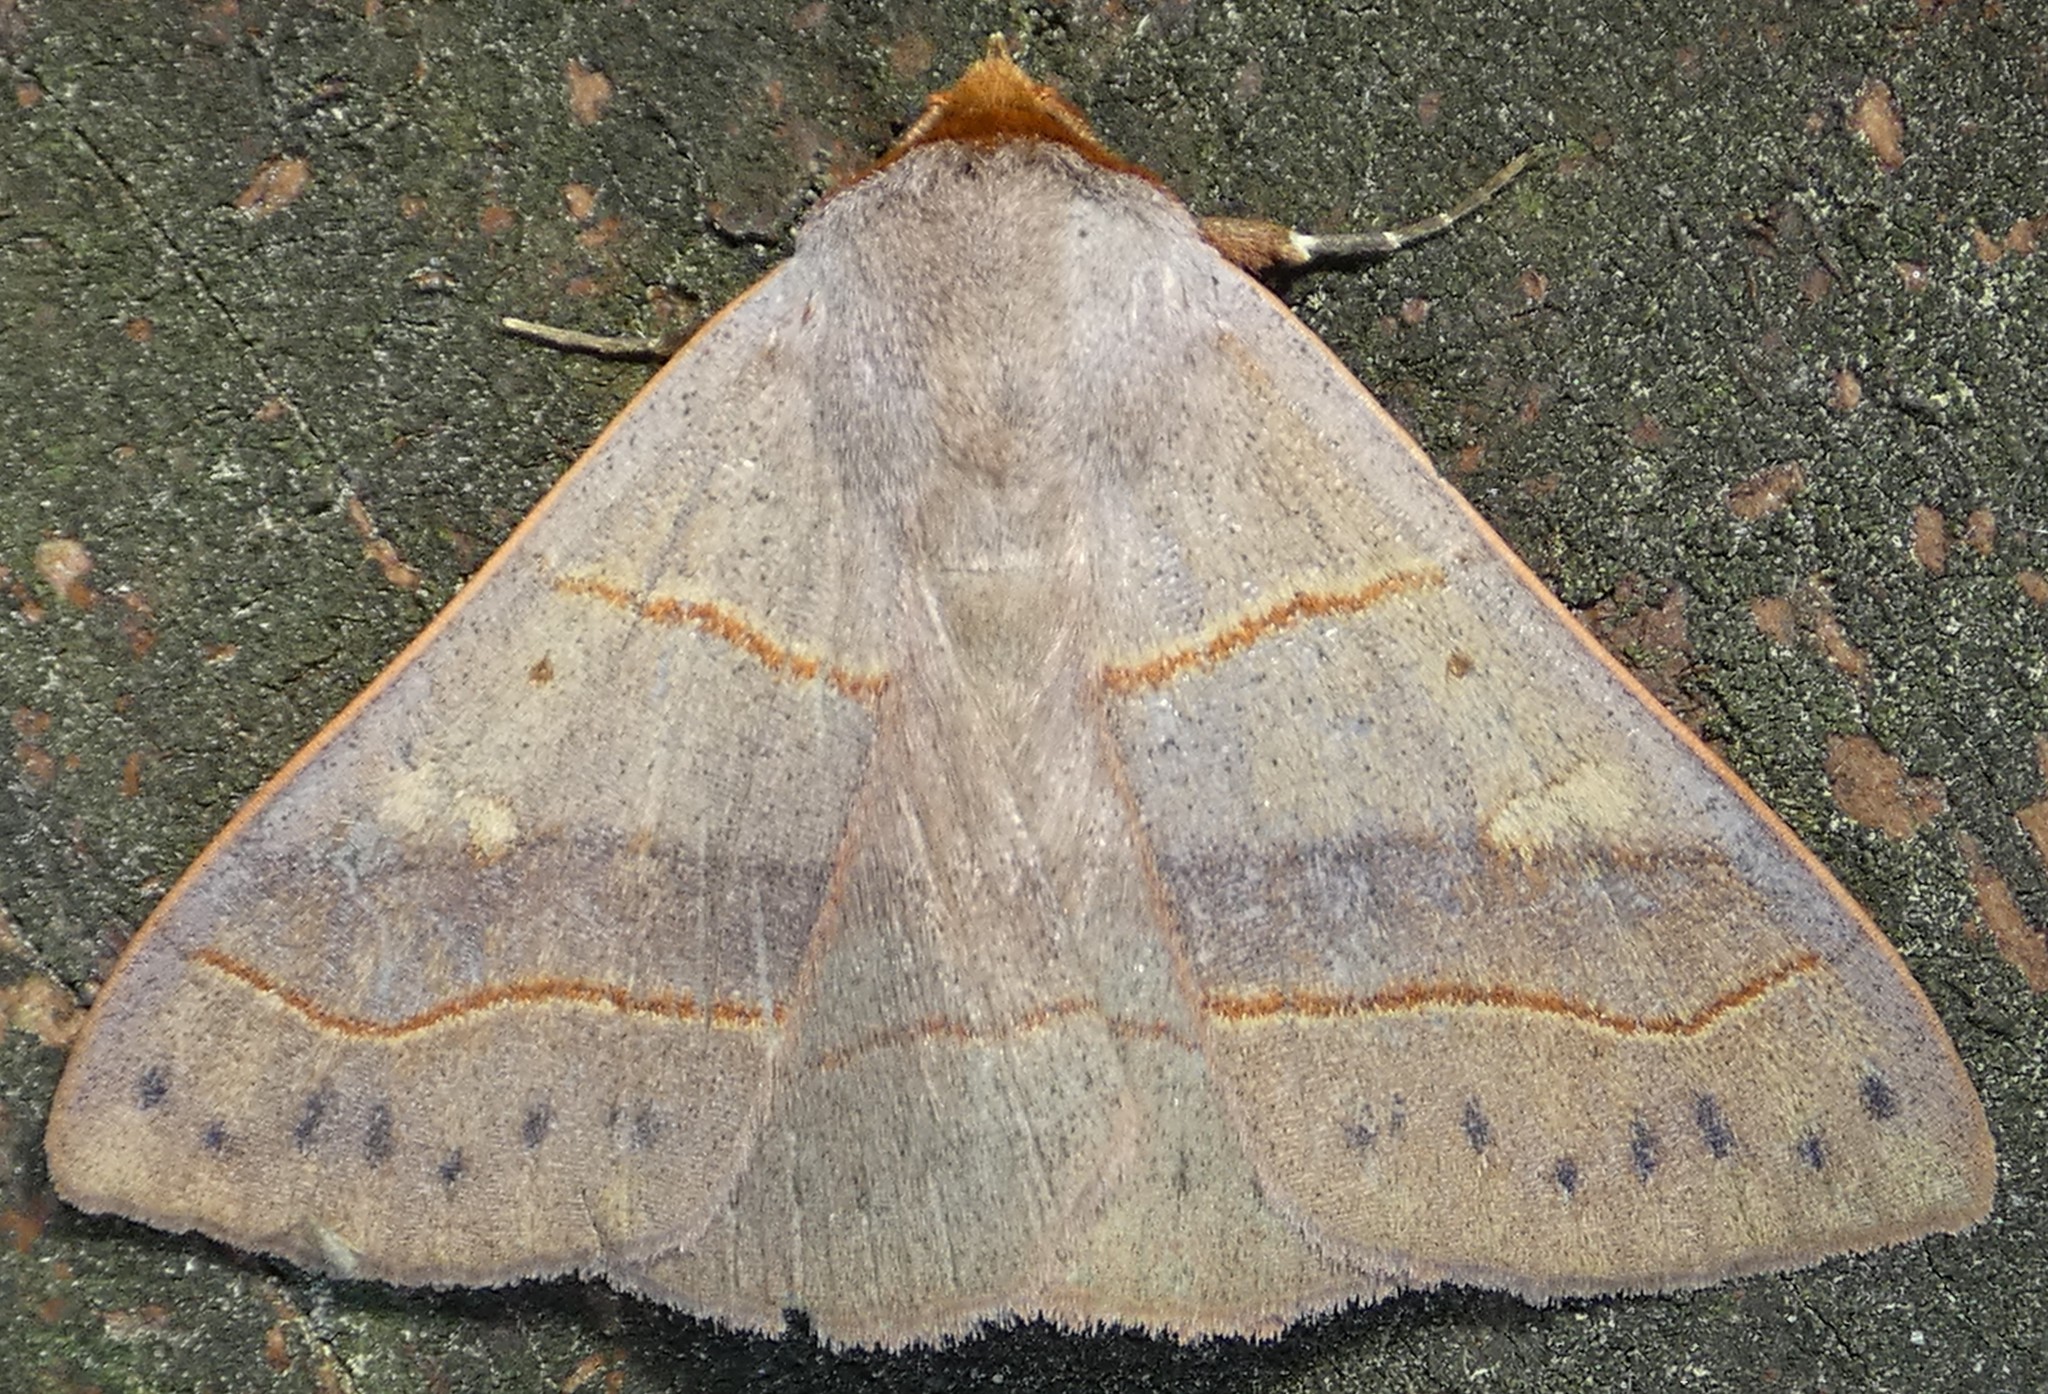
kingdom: Animalia
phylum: Arthropoda
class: Insecta
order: Lepidoptera
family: Erebidae
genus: Panopoda
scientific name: Panopoda rufimargo
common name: Red-lined panopoda moth
